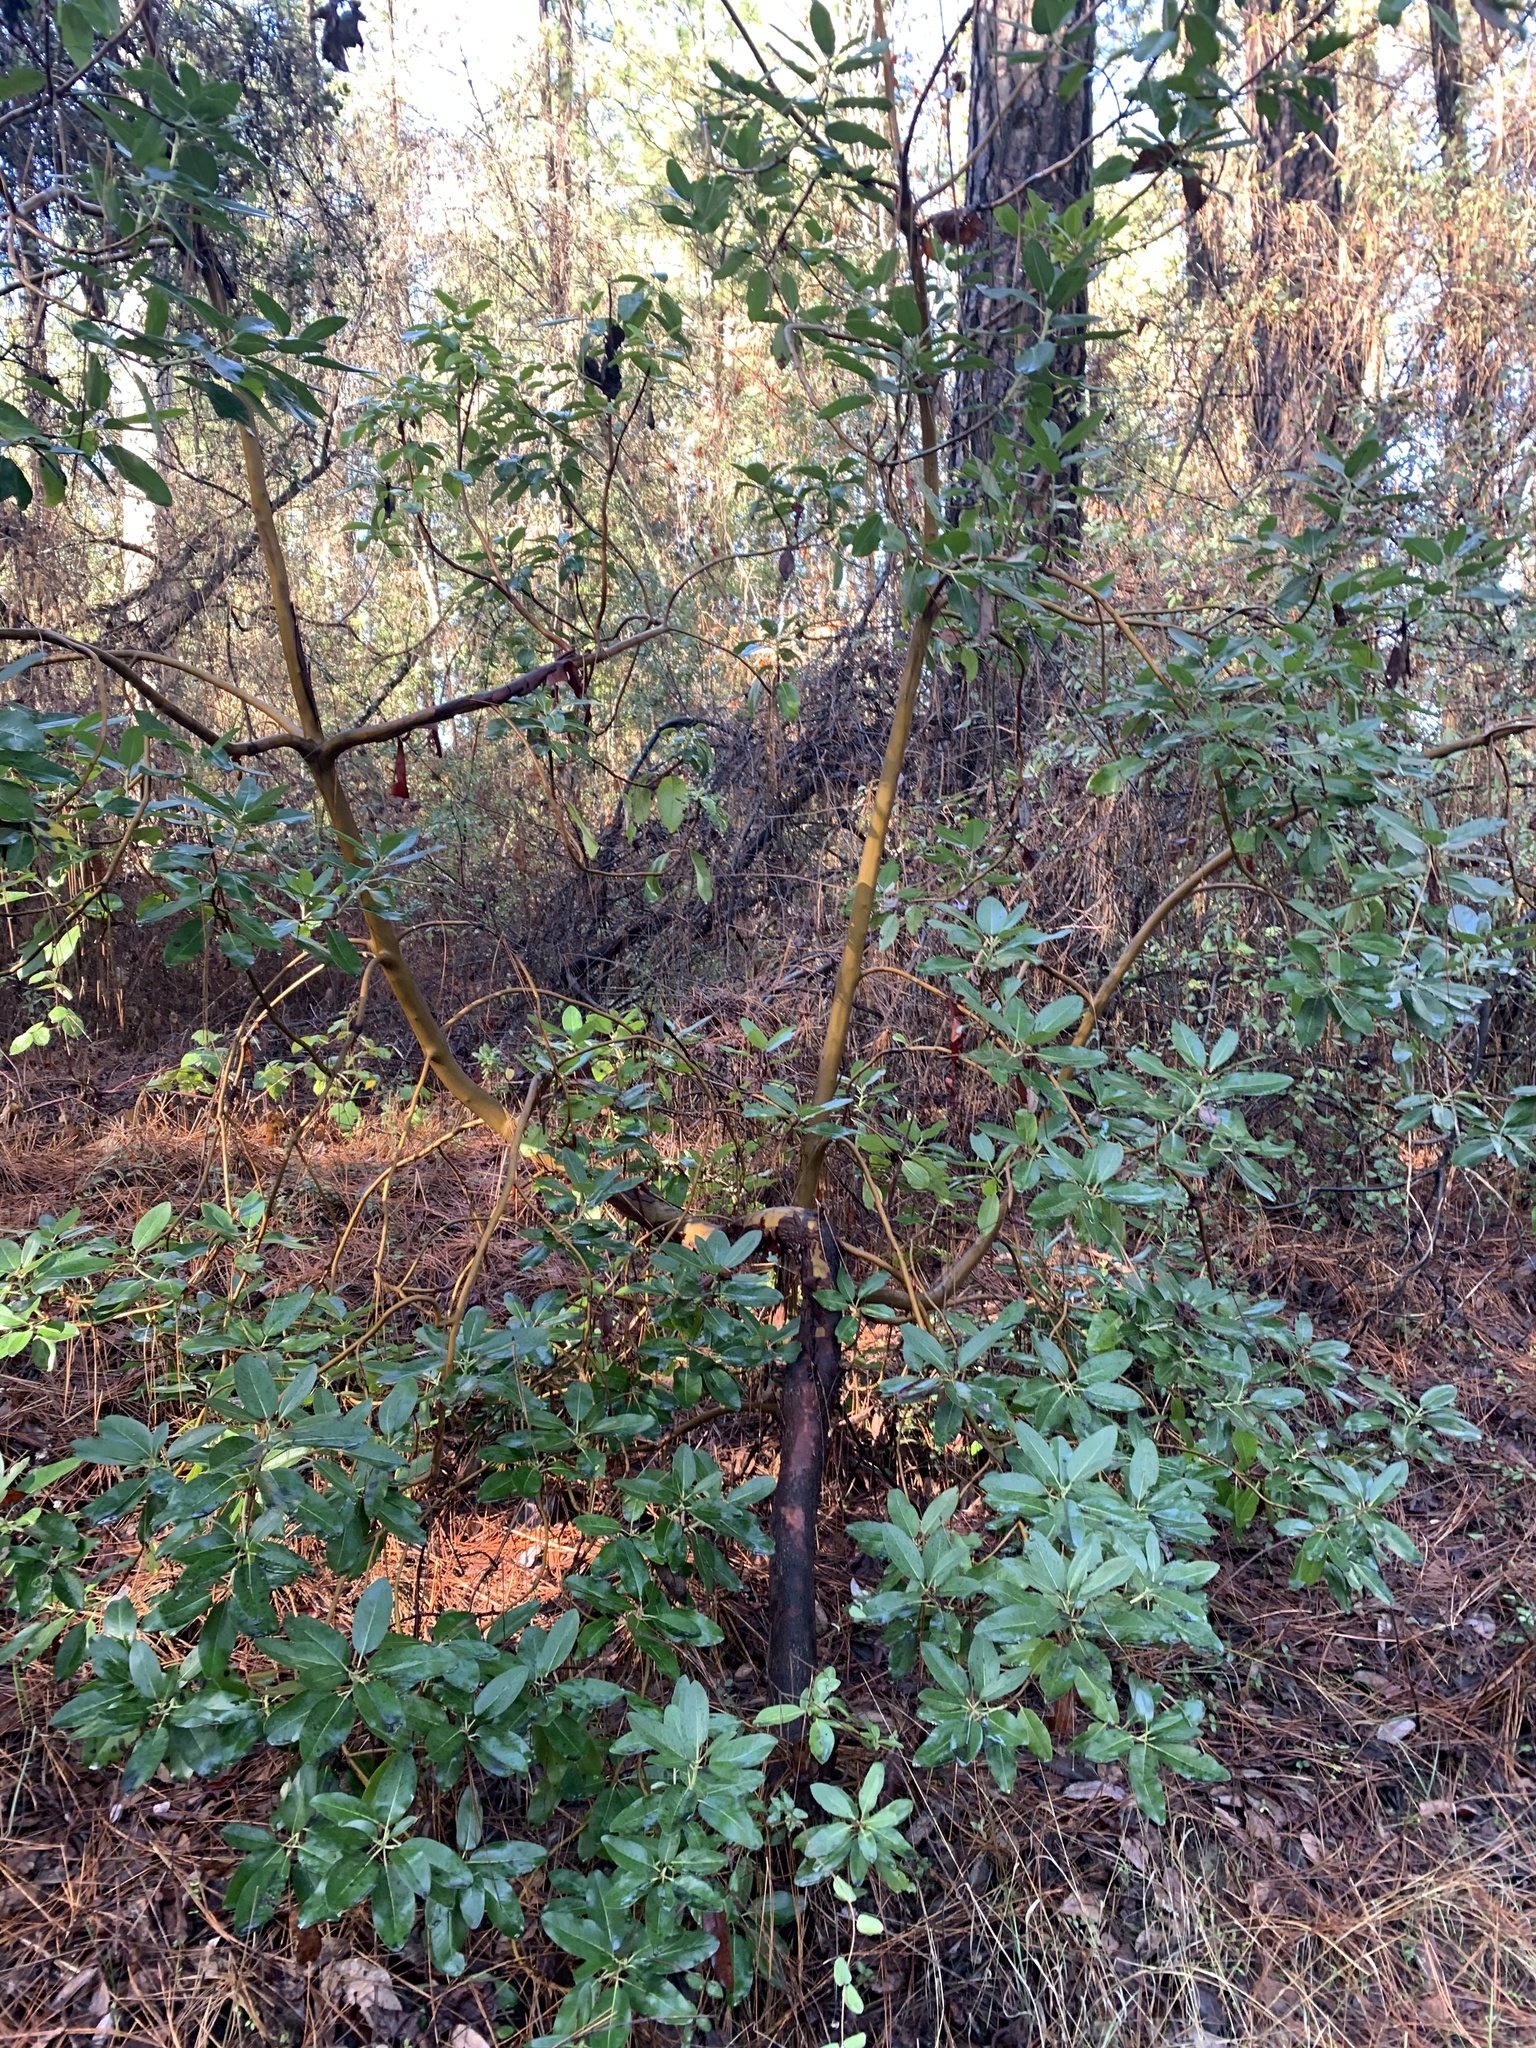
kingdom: Plantae
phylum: Tracheophyta
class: Magnoliopsida
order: Ericales
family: Ericaceae
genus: Arbutus
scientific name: Arbutus menziesii
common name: Pacific madrone
